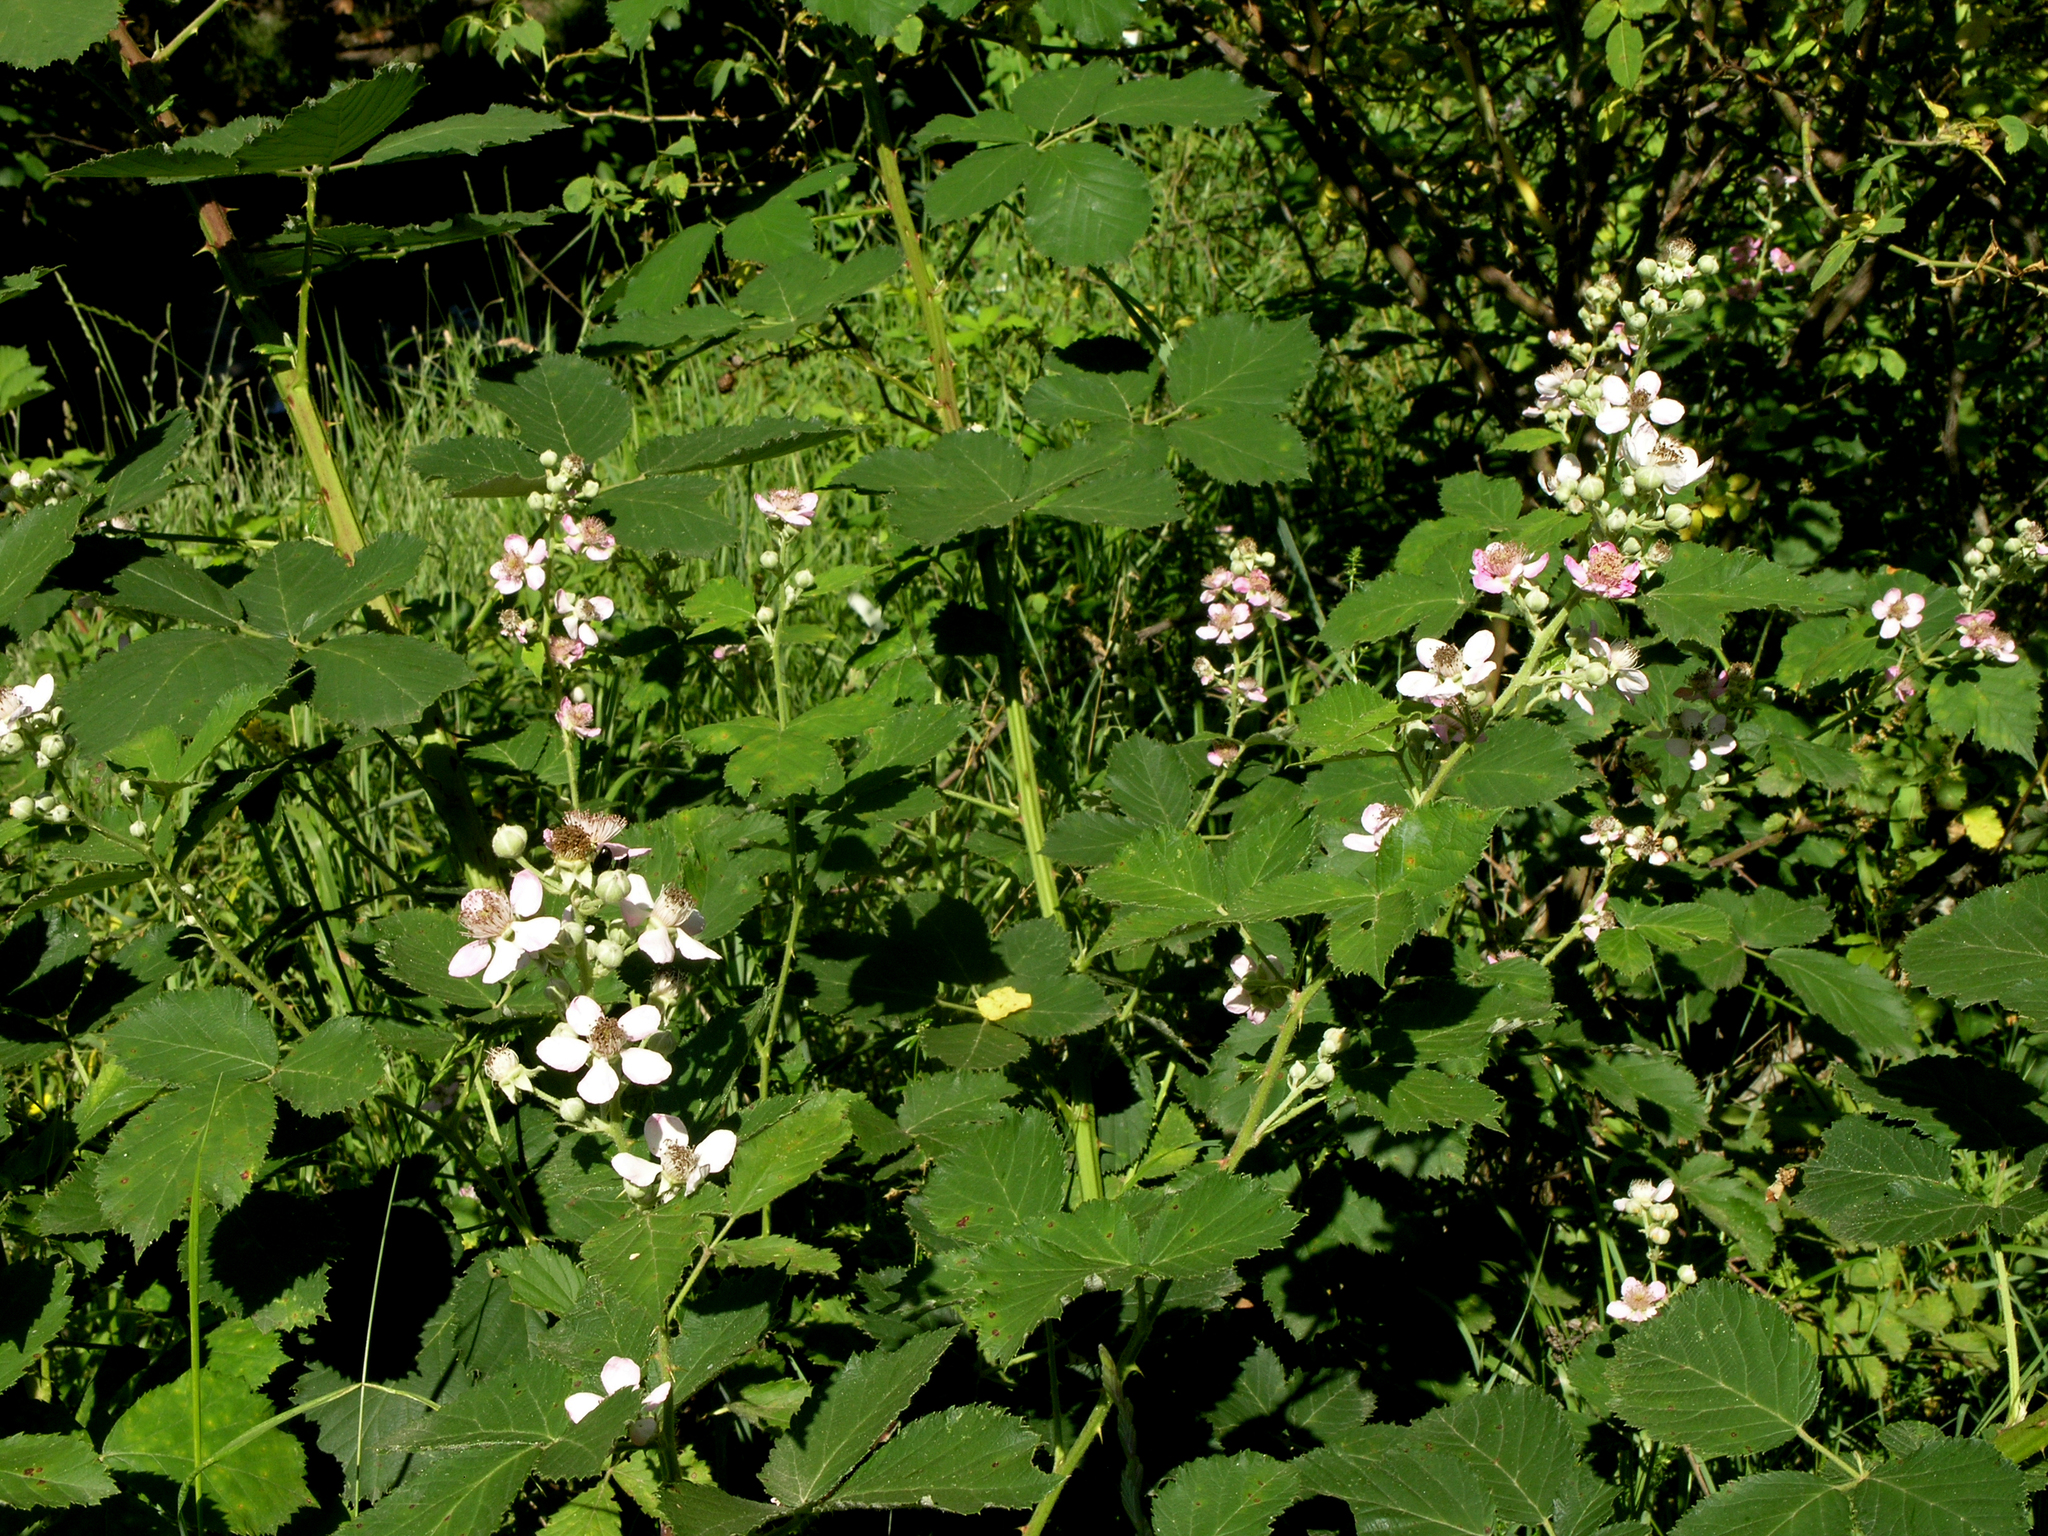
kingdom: Plantae
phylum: Tracheophyta
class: Magnoliopsida
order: Rosales
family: Rosaceae
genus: Rubus
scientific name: Rubus sanctus
